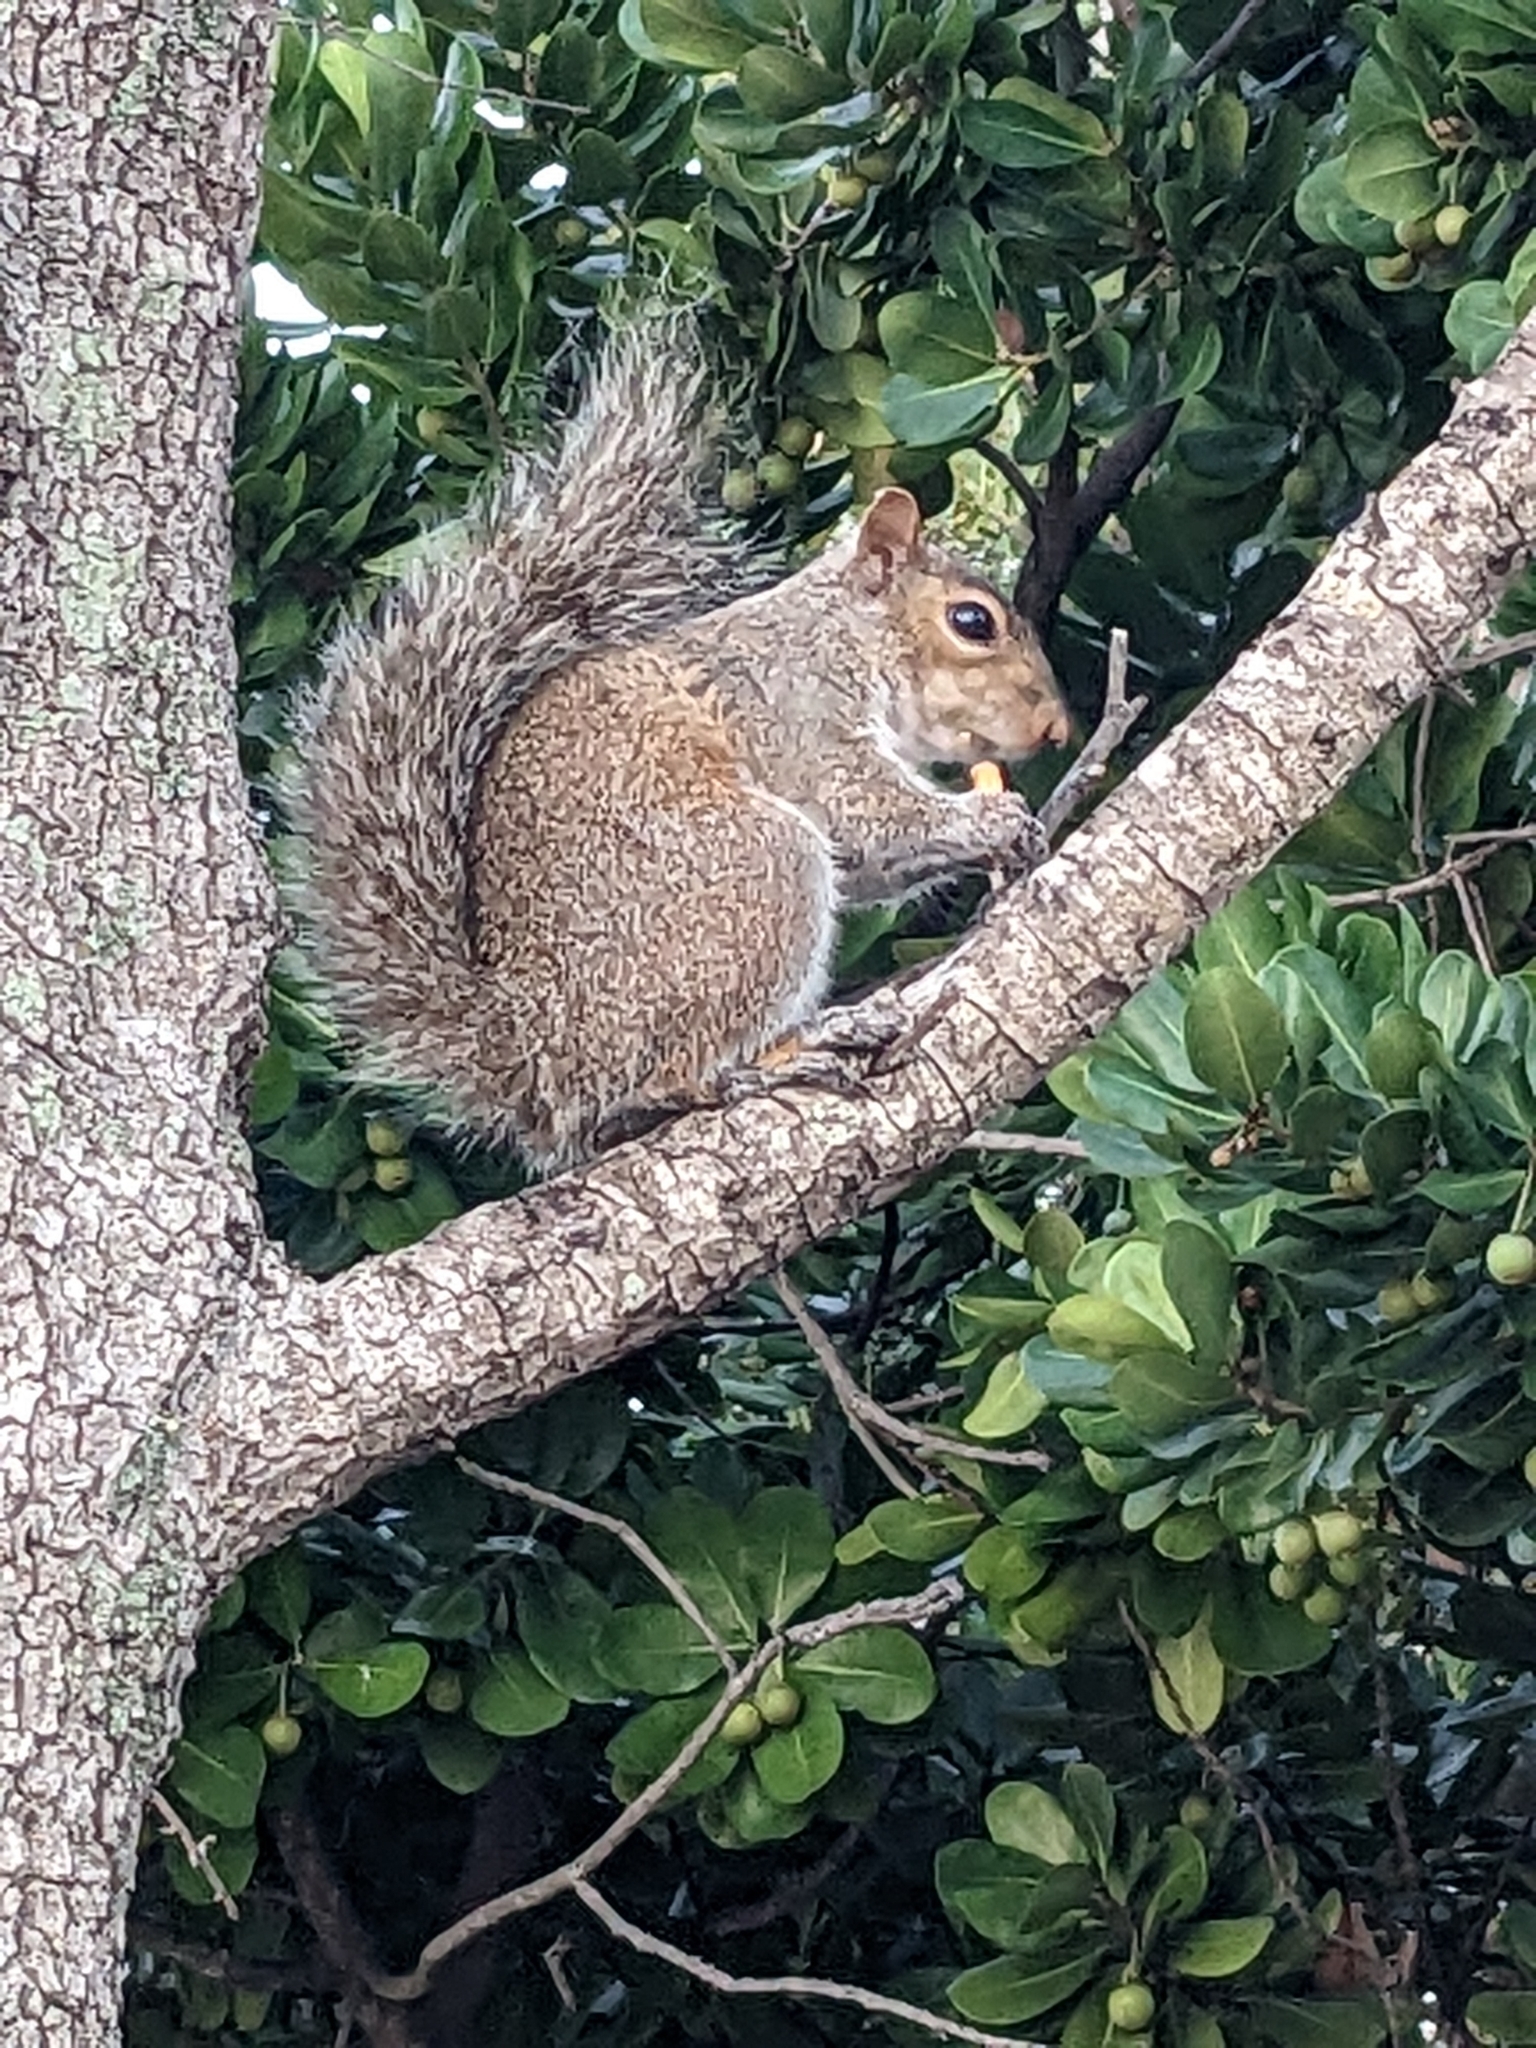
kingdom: Animalia
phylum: Chordata
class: Mammalia
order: Rodentia
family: Sciuridae
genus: Sciurus
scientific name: Sciurus carolinensis
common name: Eastern gray squirrel
